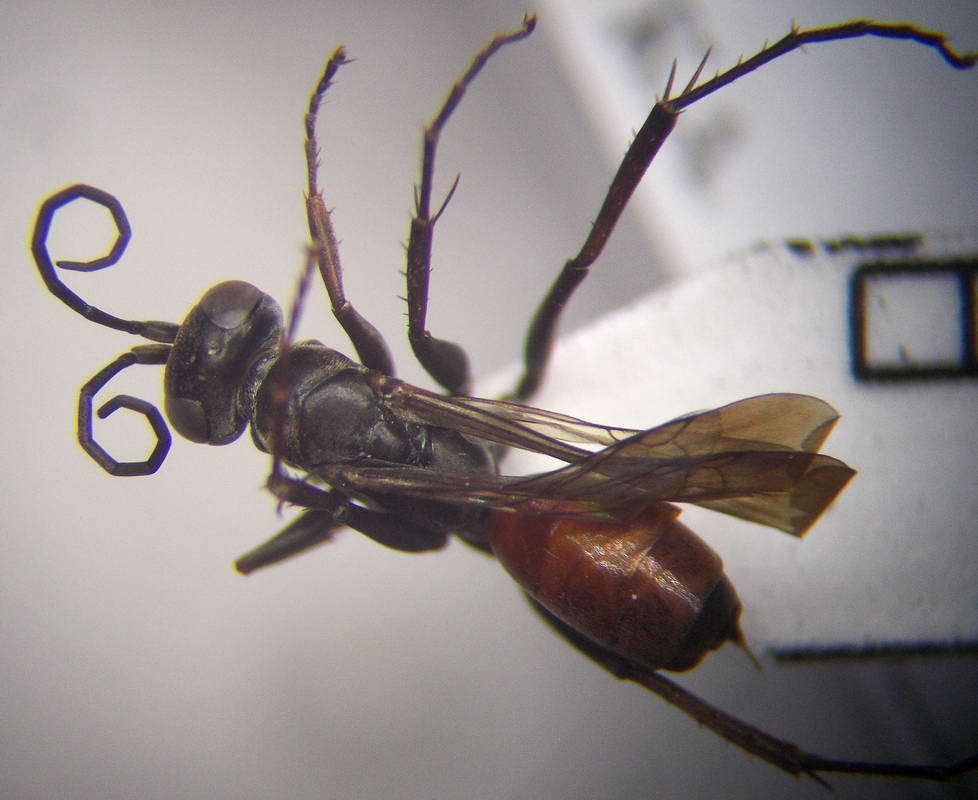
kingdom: Animalia
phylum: Arthropoda
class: Insecta
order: Hymenoptera
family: Pompilidae
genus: Tachyagetes
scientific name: Tachyagetes filicornis
